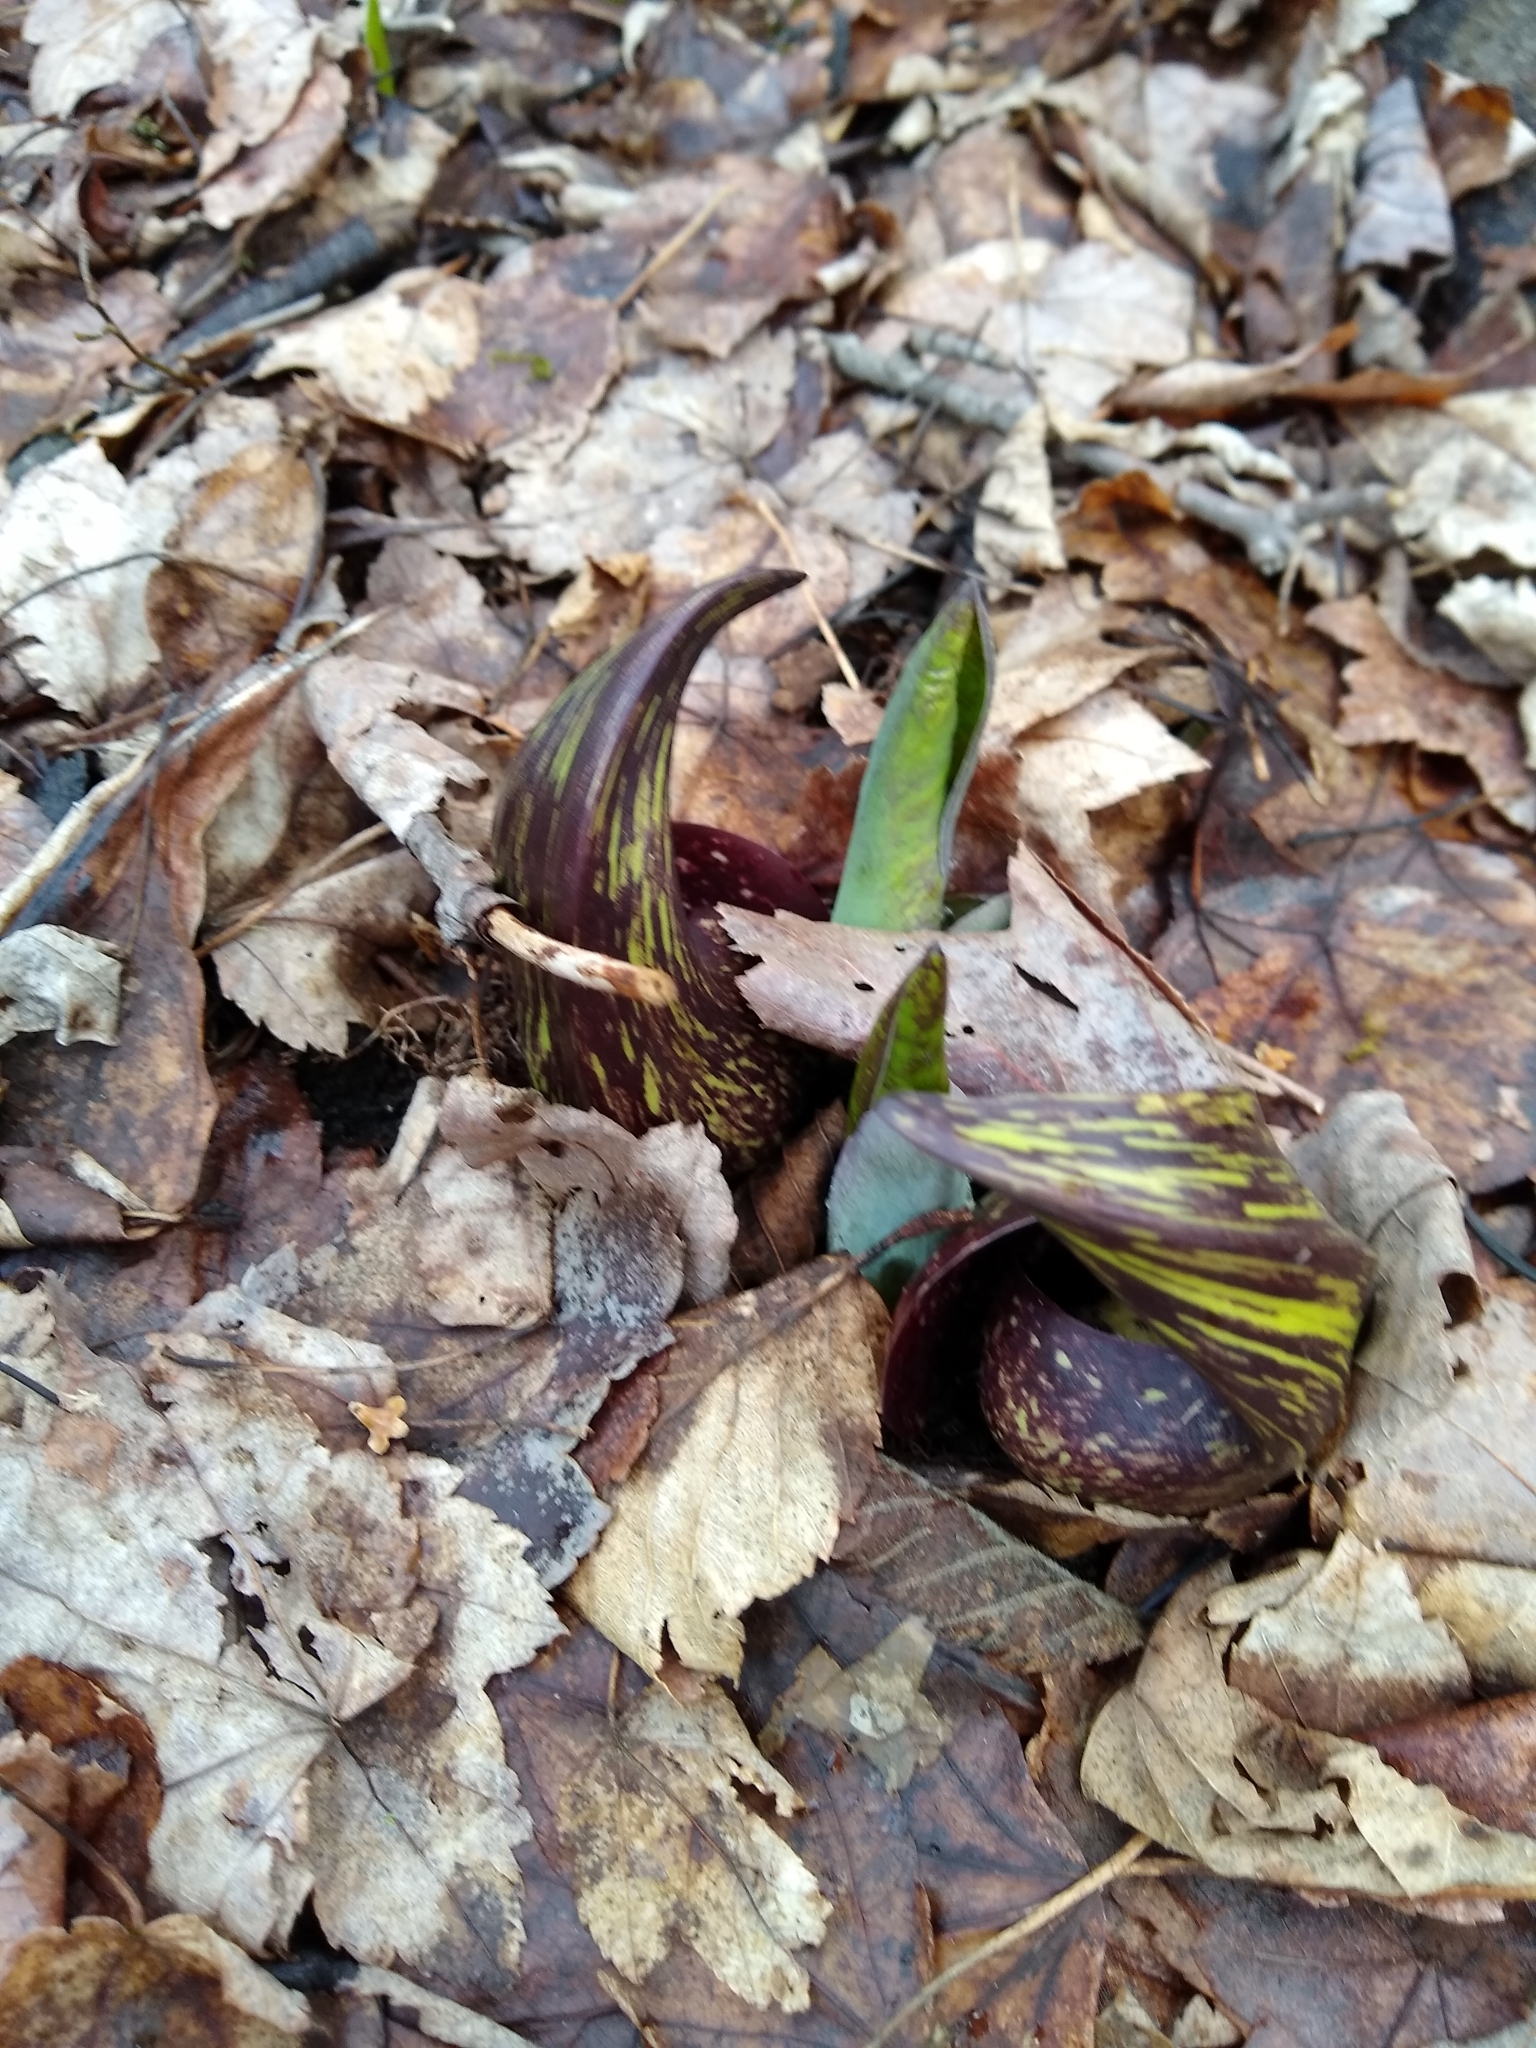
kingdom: Plantae
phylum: Tracheophyta
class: Liliopsida
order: Alismatales
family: Araceae
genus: Symplocarpus
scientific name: Symplocarpus foetidus
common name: Eastern skunk cabbage
